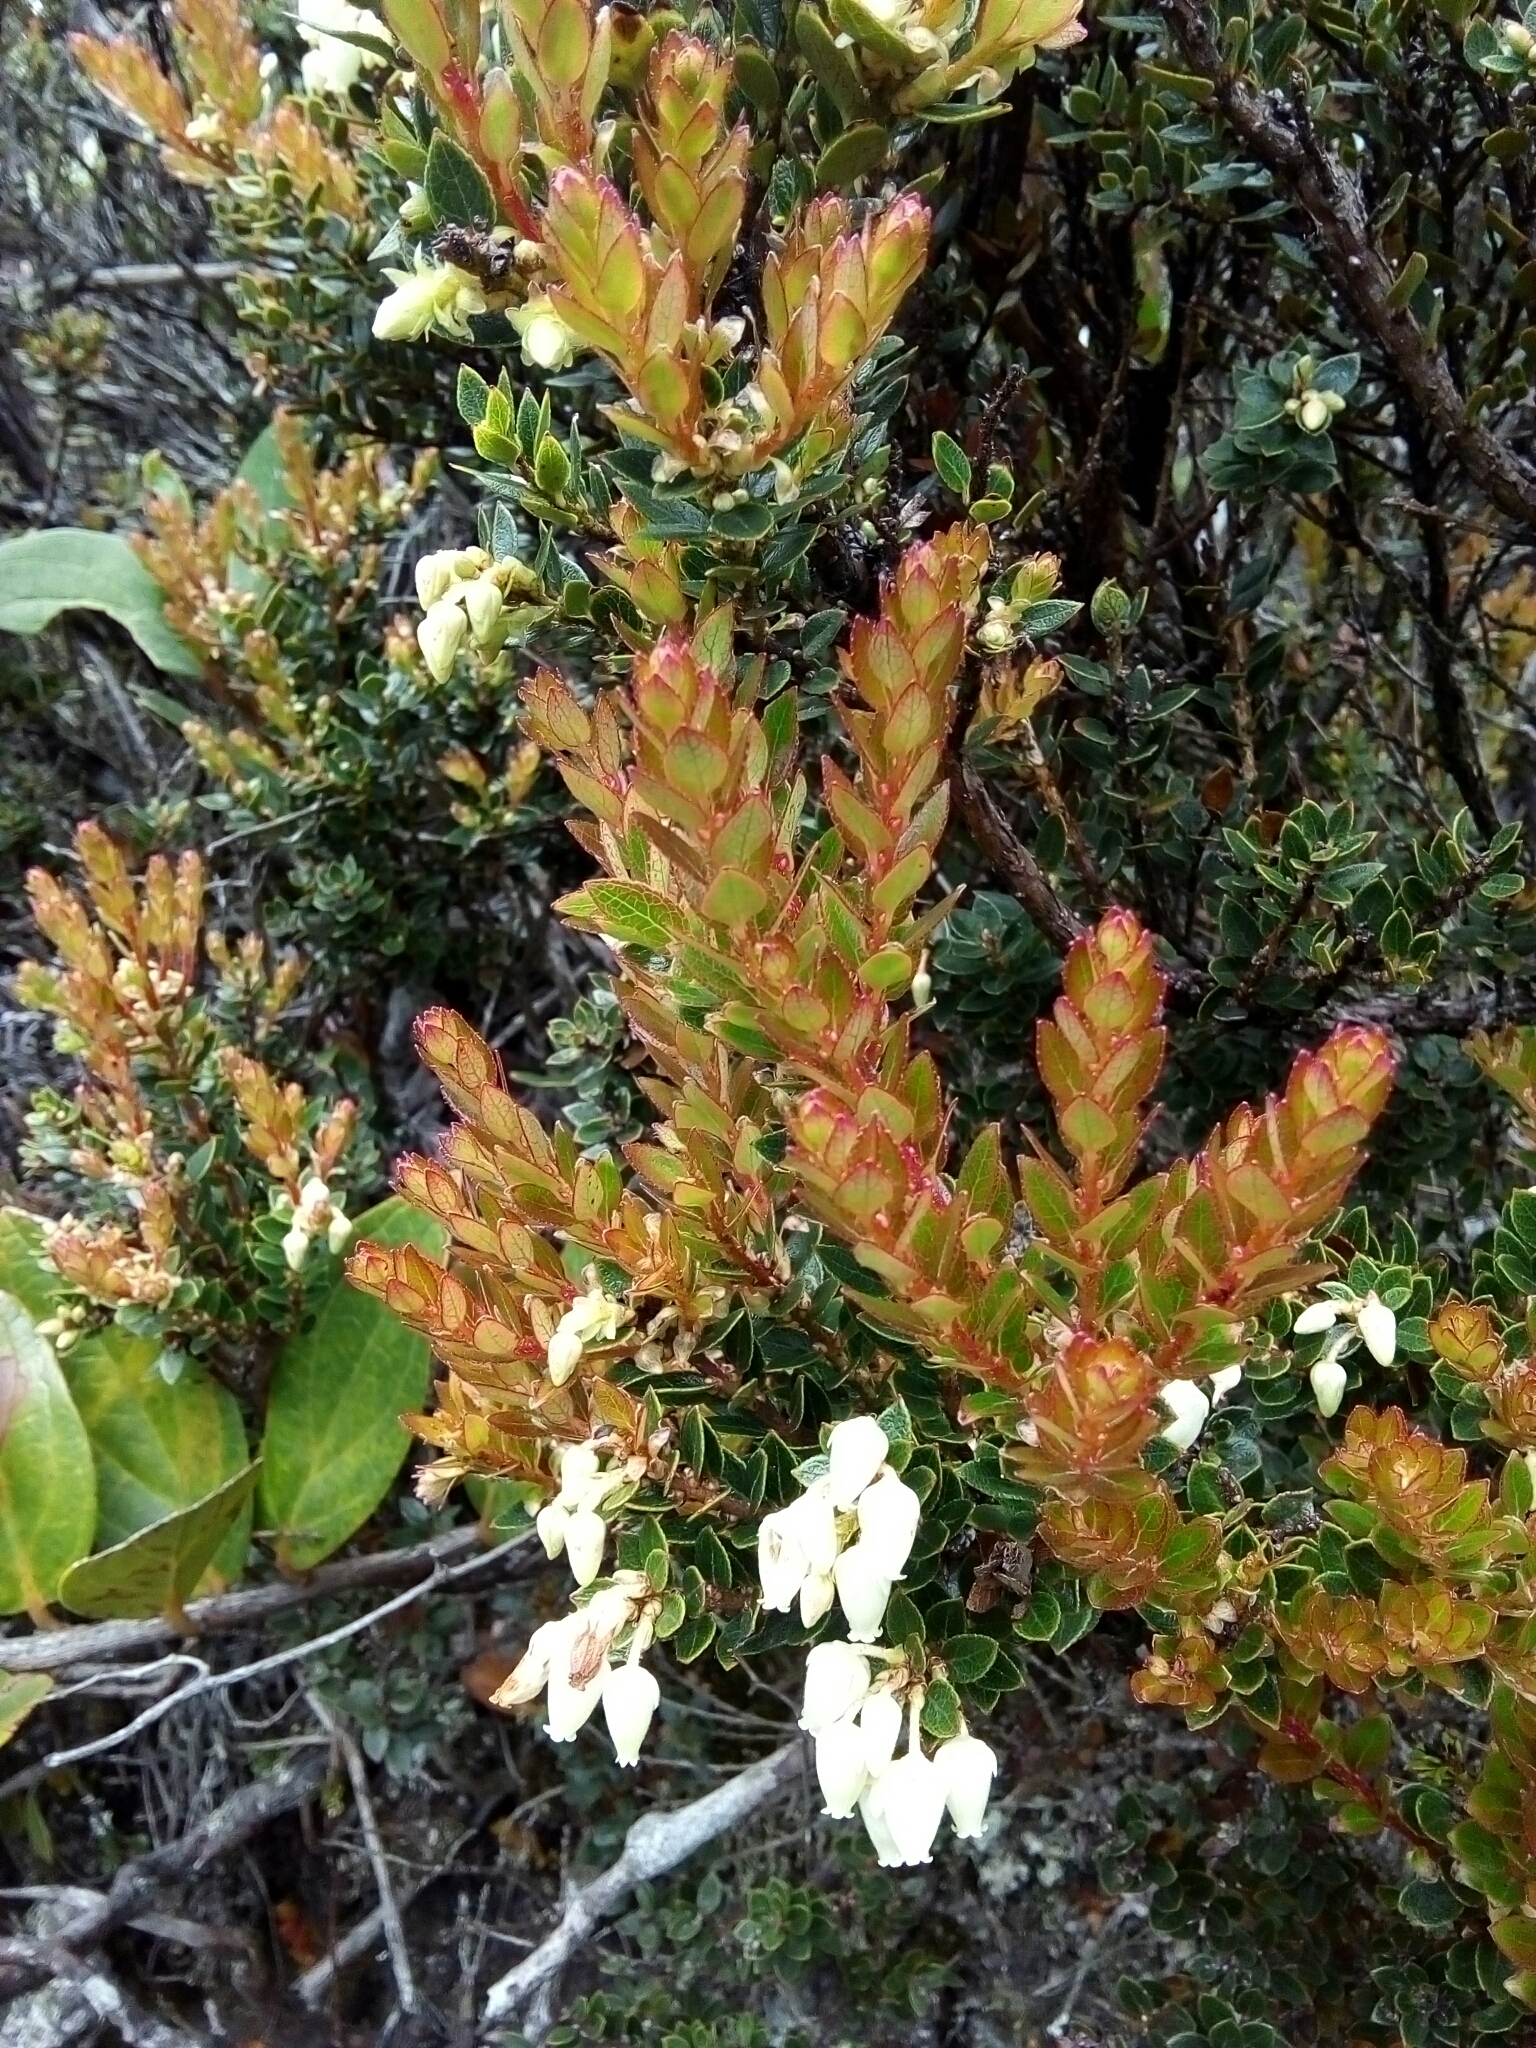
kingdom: Plantae
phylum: Tracheophyta
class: Magnoliopsida
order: Ericales
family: Ericaceae
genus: Gaultheria
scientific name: Gaultheria anastomosans
